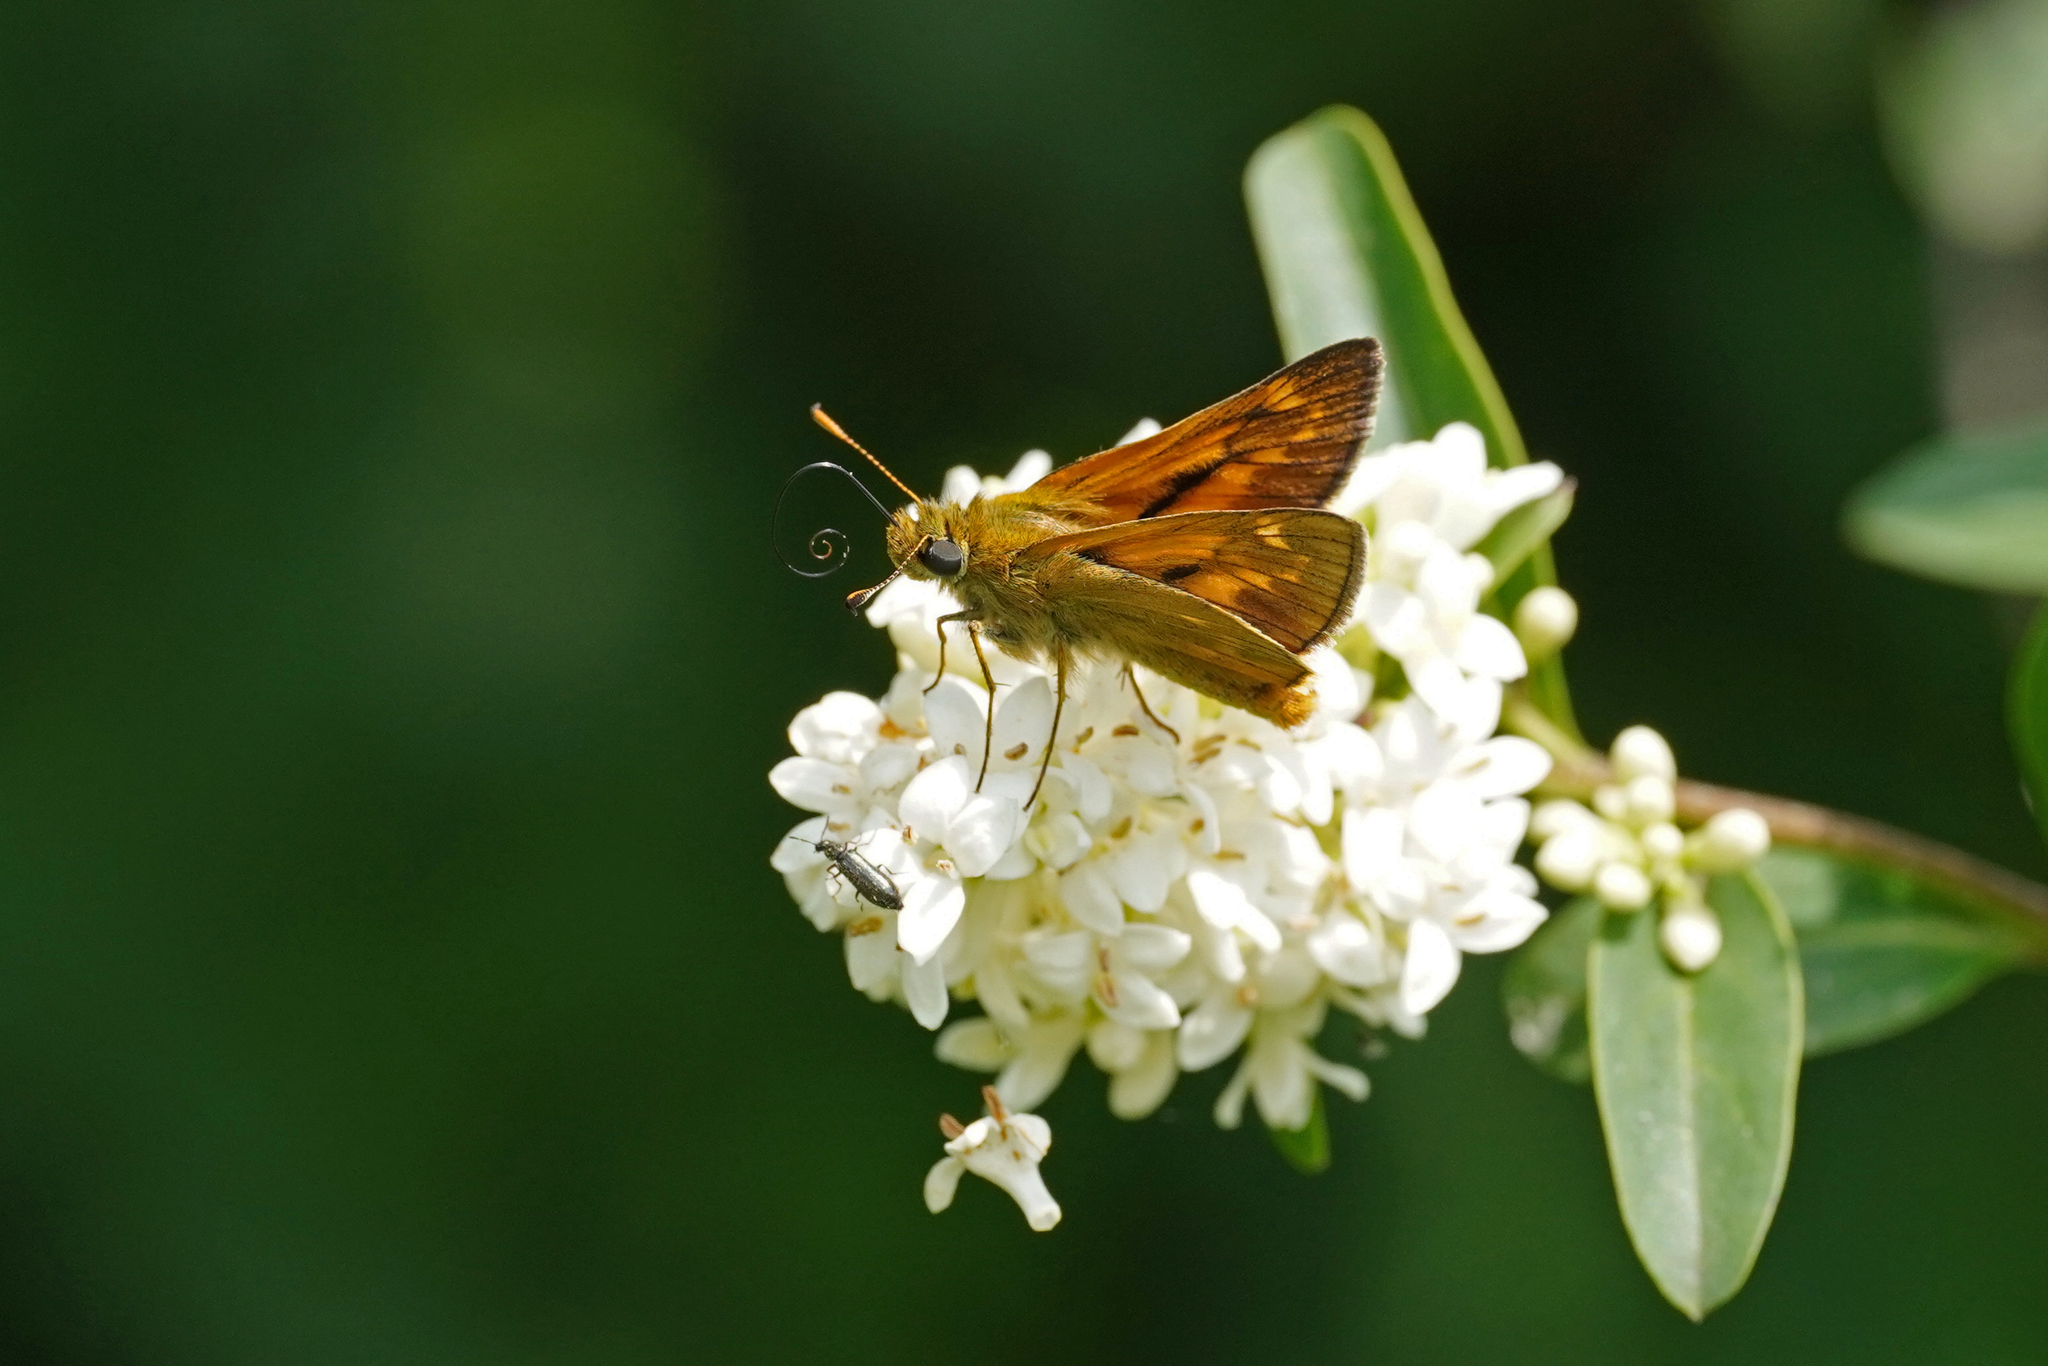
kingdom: Animalia
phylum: Arthropoda
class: Insecta
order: Lepidoptera
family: Hesperiidae
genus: Ochlodes
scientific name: Ochlodes venata
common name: Large skipper
